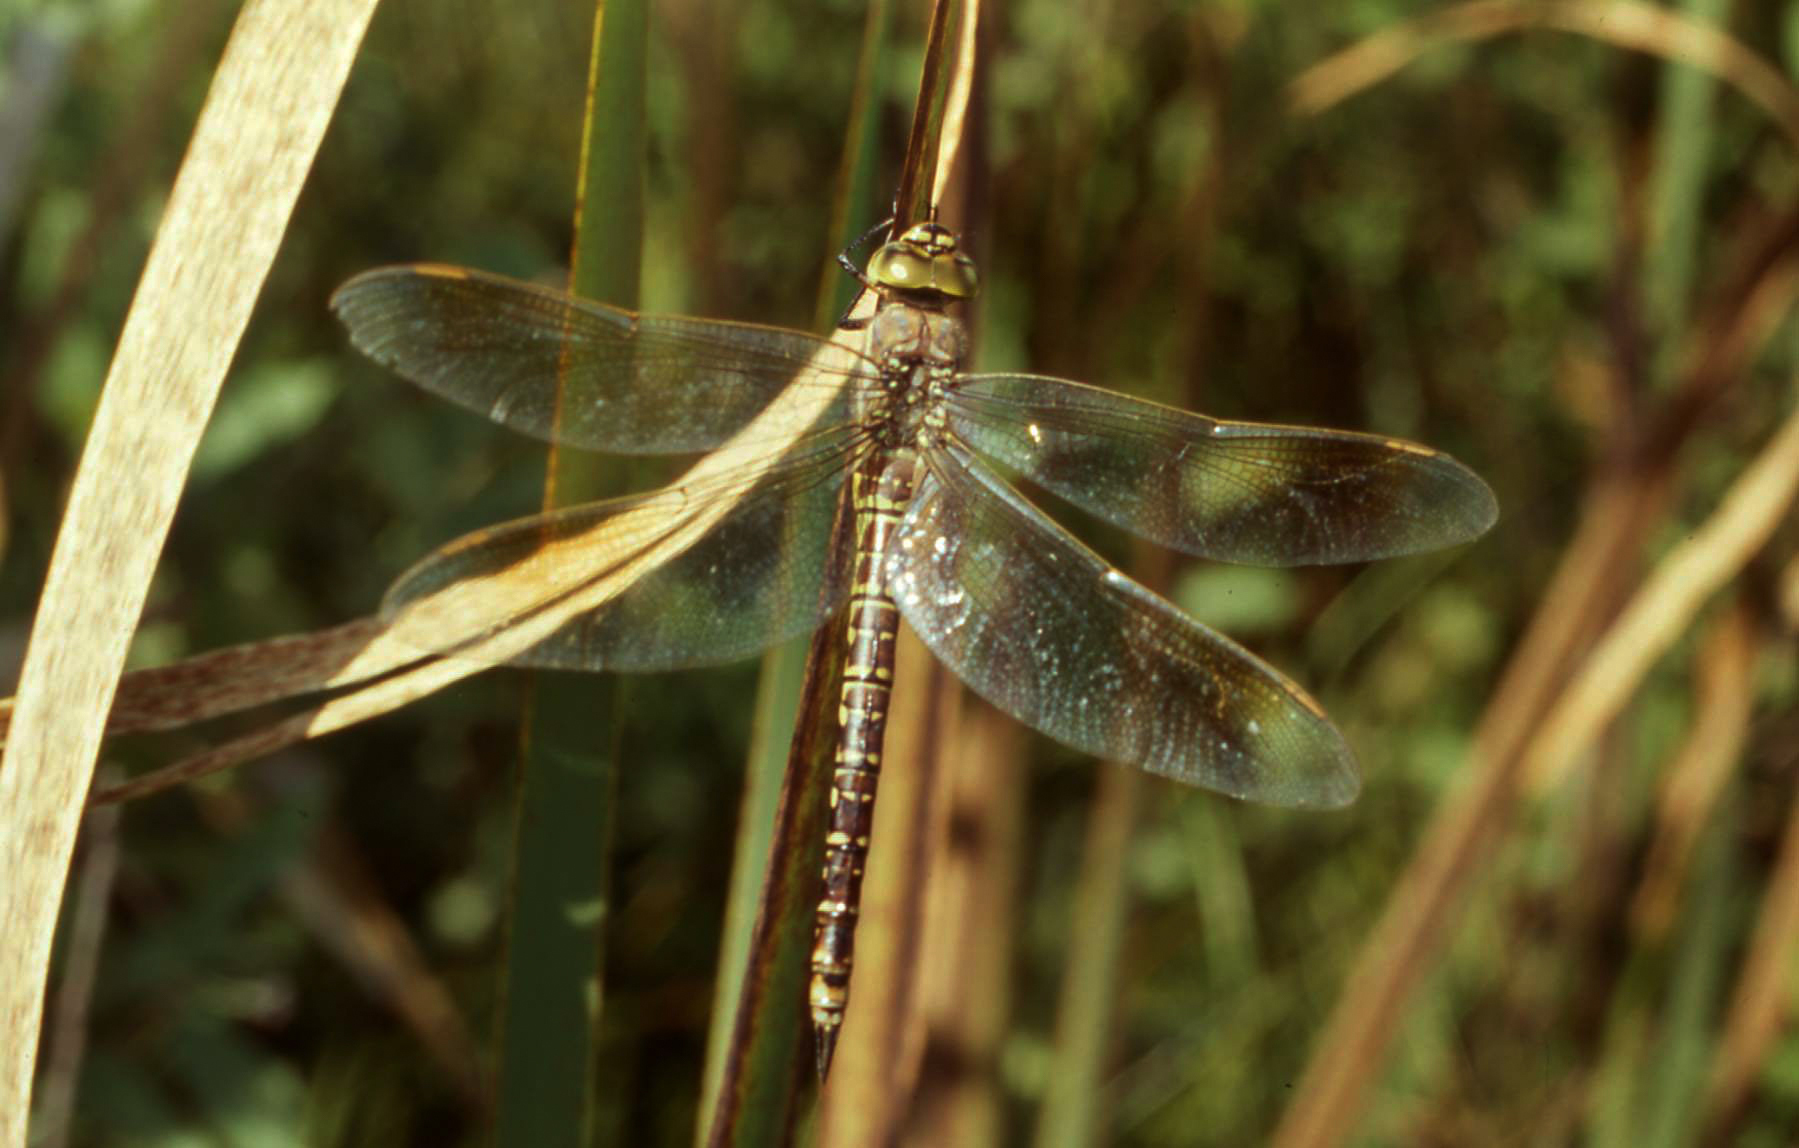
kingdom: Animalia
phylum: Arthropoda
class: Insecta
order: Odonata
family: Aeshnidae
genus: Aeshna
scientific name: Aeshna crenata
